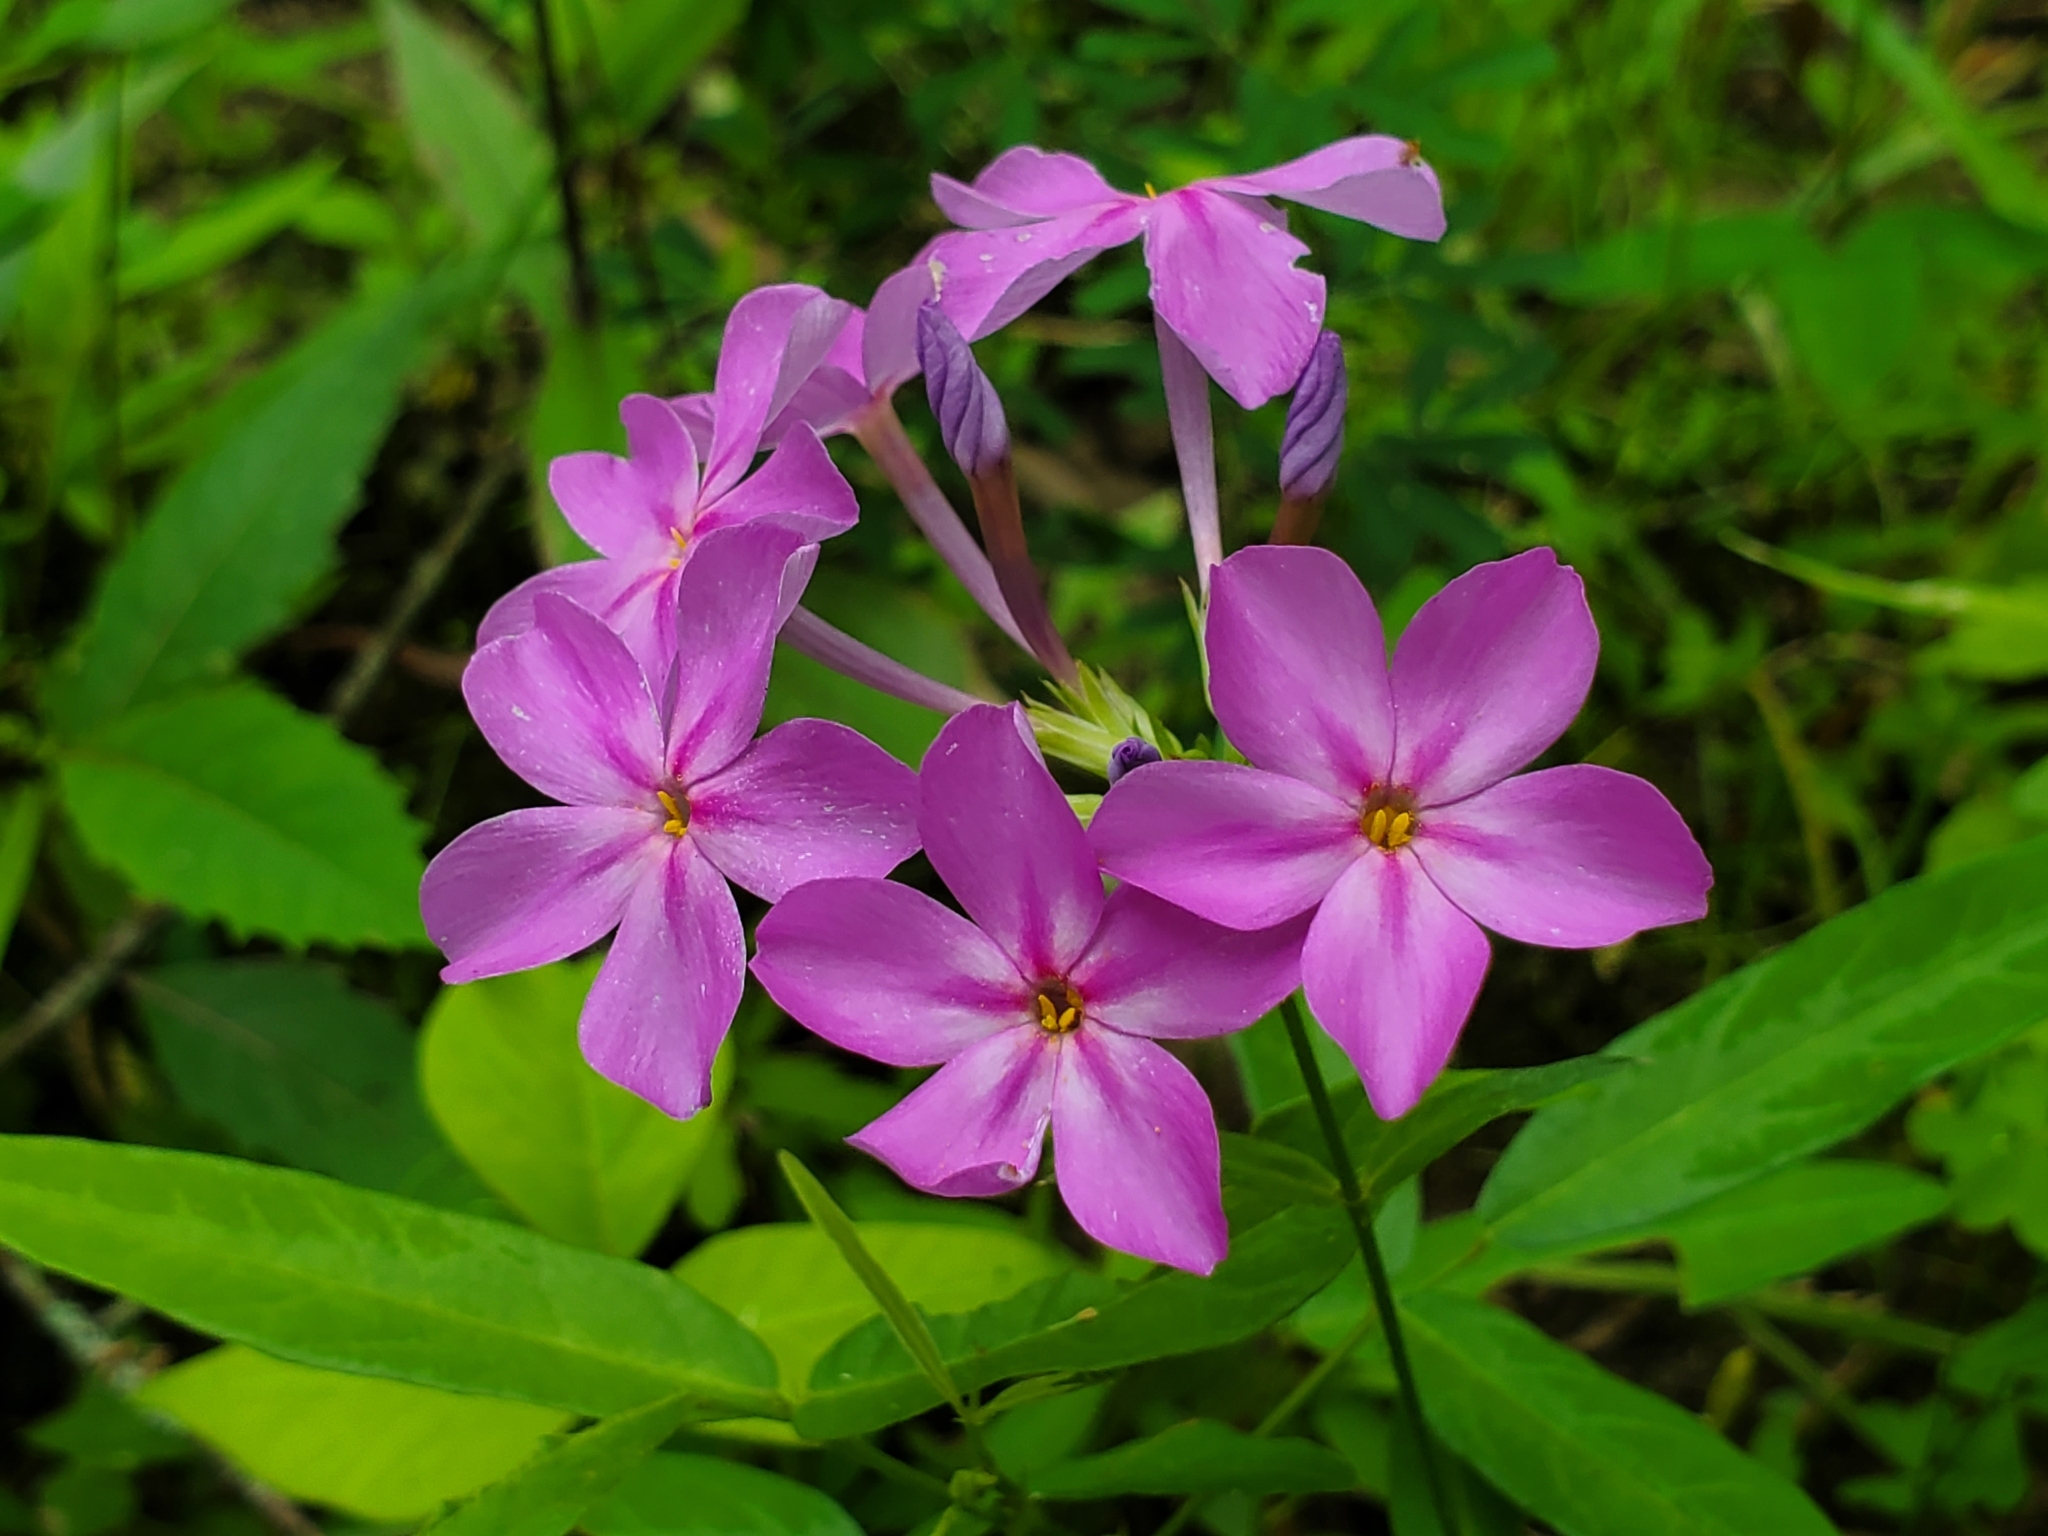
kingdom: Plantae
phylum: Tracheophyta
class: Magnoliopsida
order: Ericales
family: Polemoniaceae
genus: Phlox
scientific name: Phlox carolina
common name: Thick-leaf phlox
